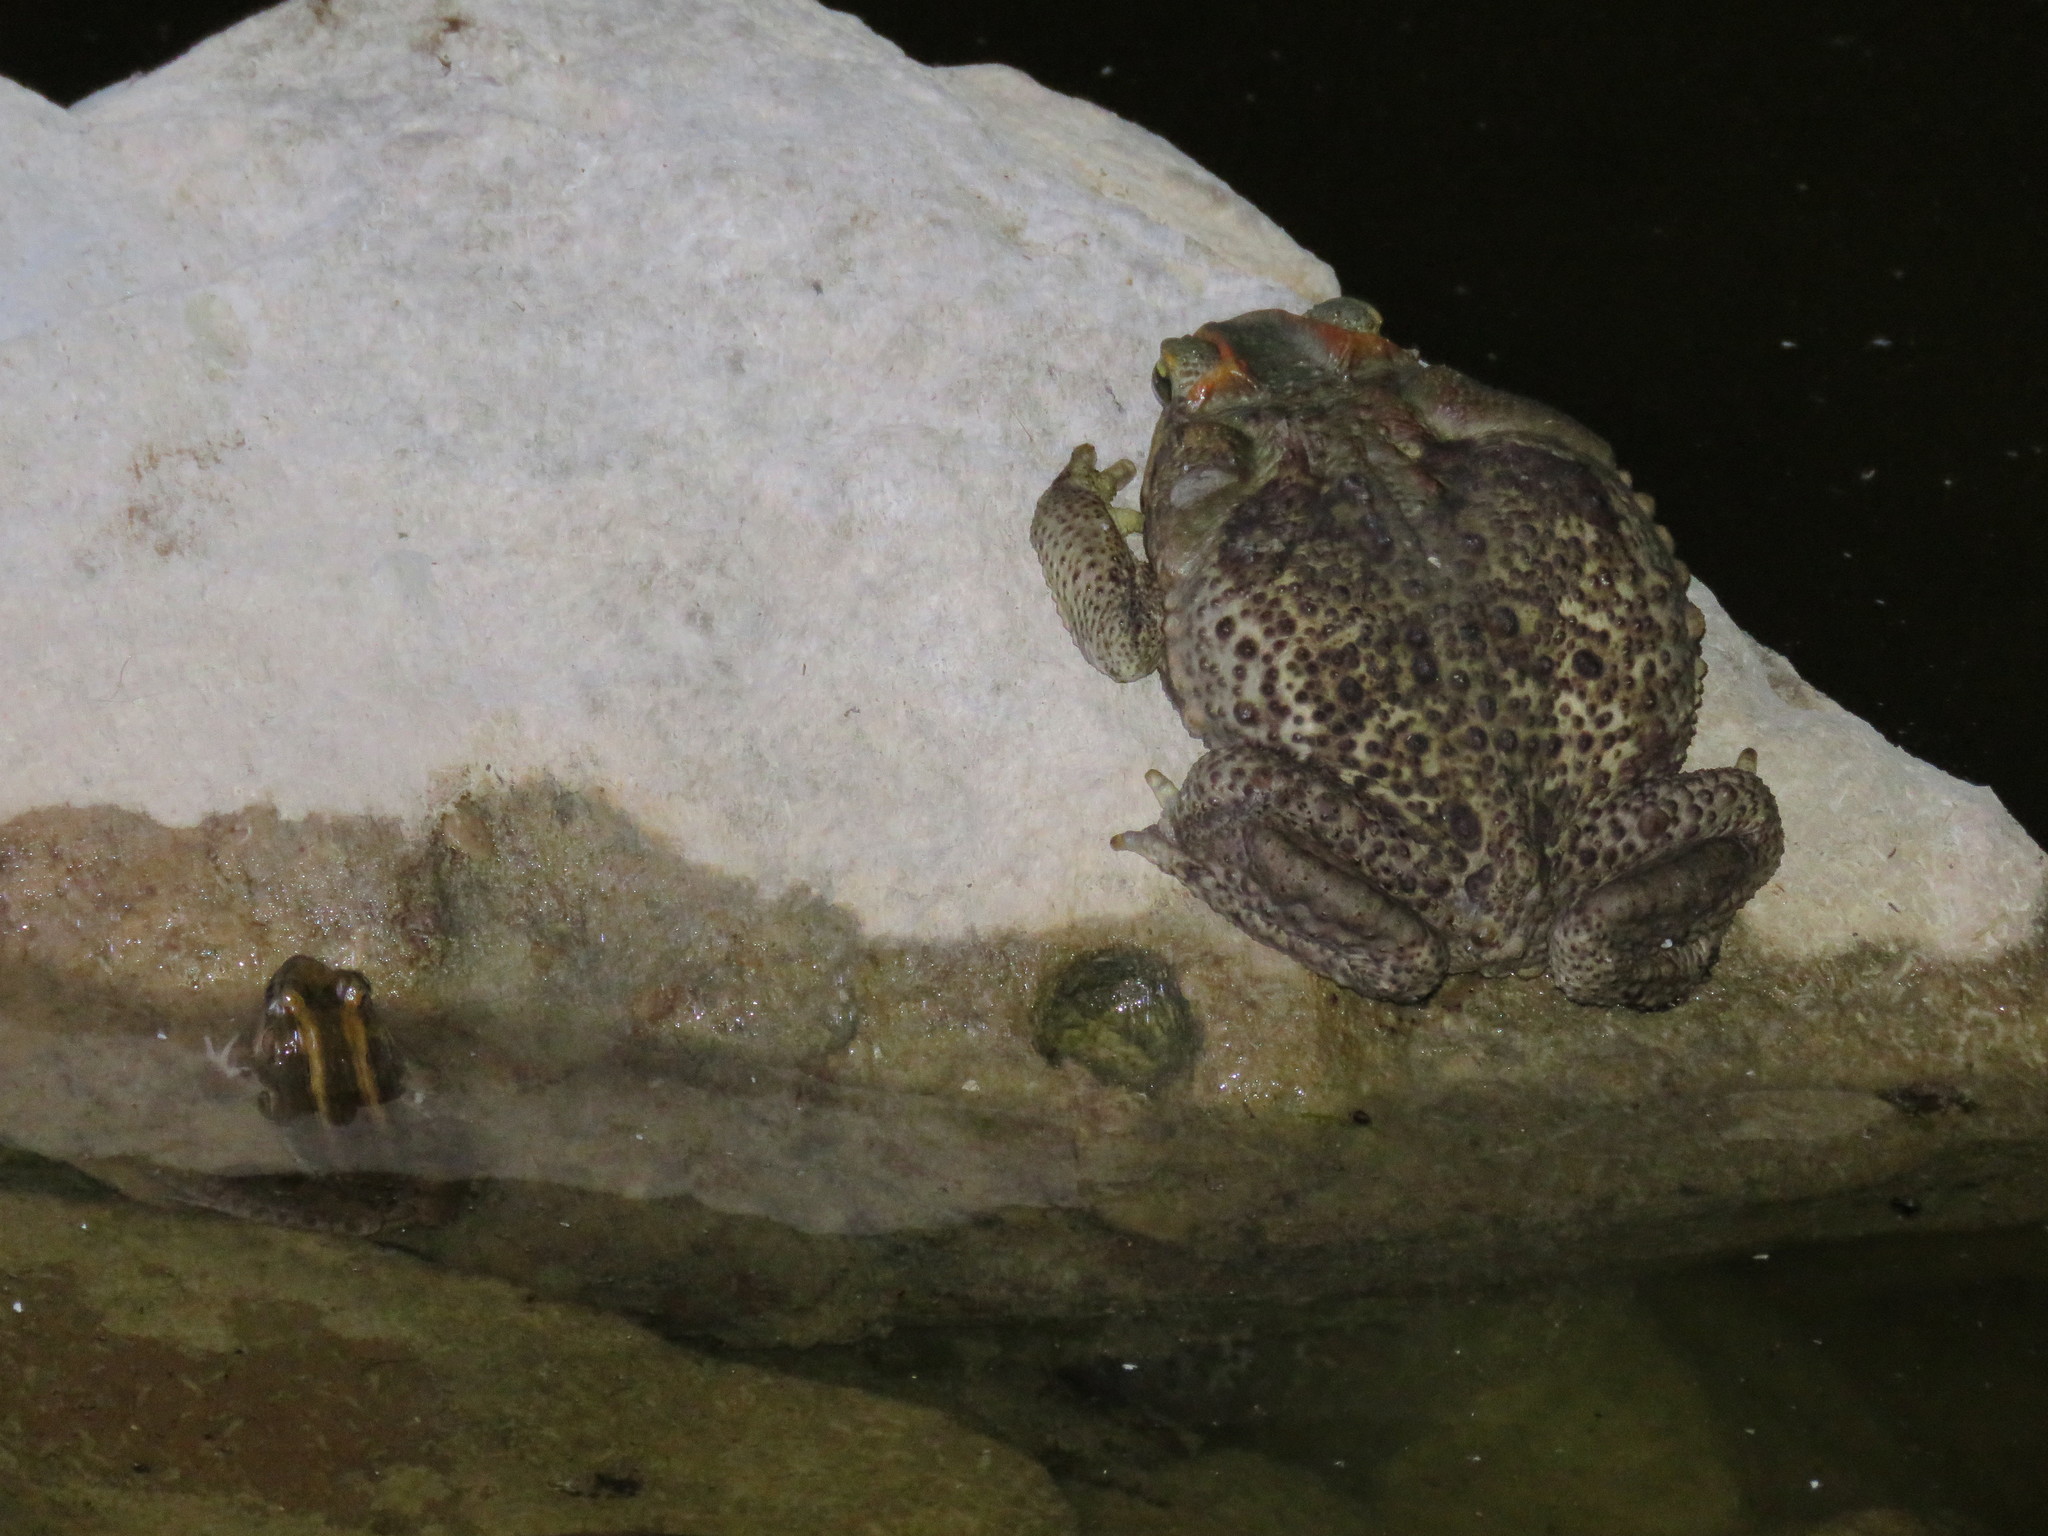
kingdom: Animalia
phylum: Chordata
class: Amphibia
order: Anura
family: Bufonidae
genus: Rhinella
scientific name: Rhinella diptycha
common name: Cope's toad
